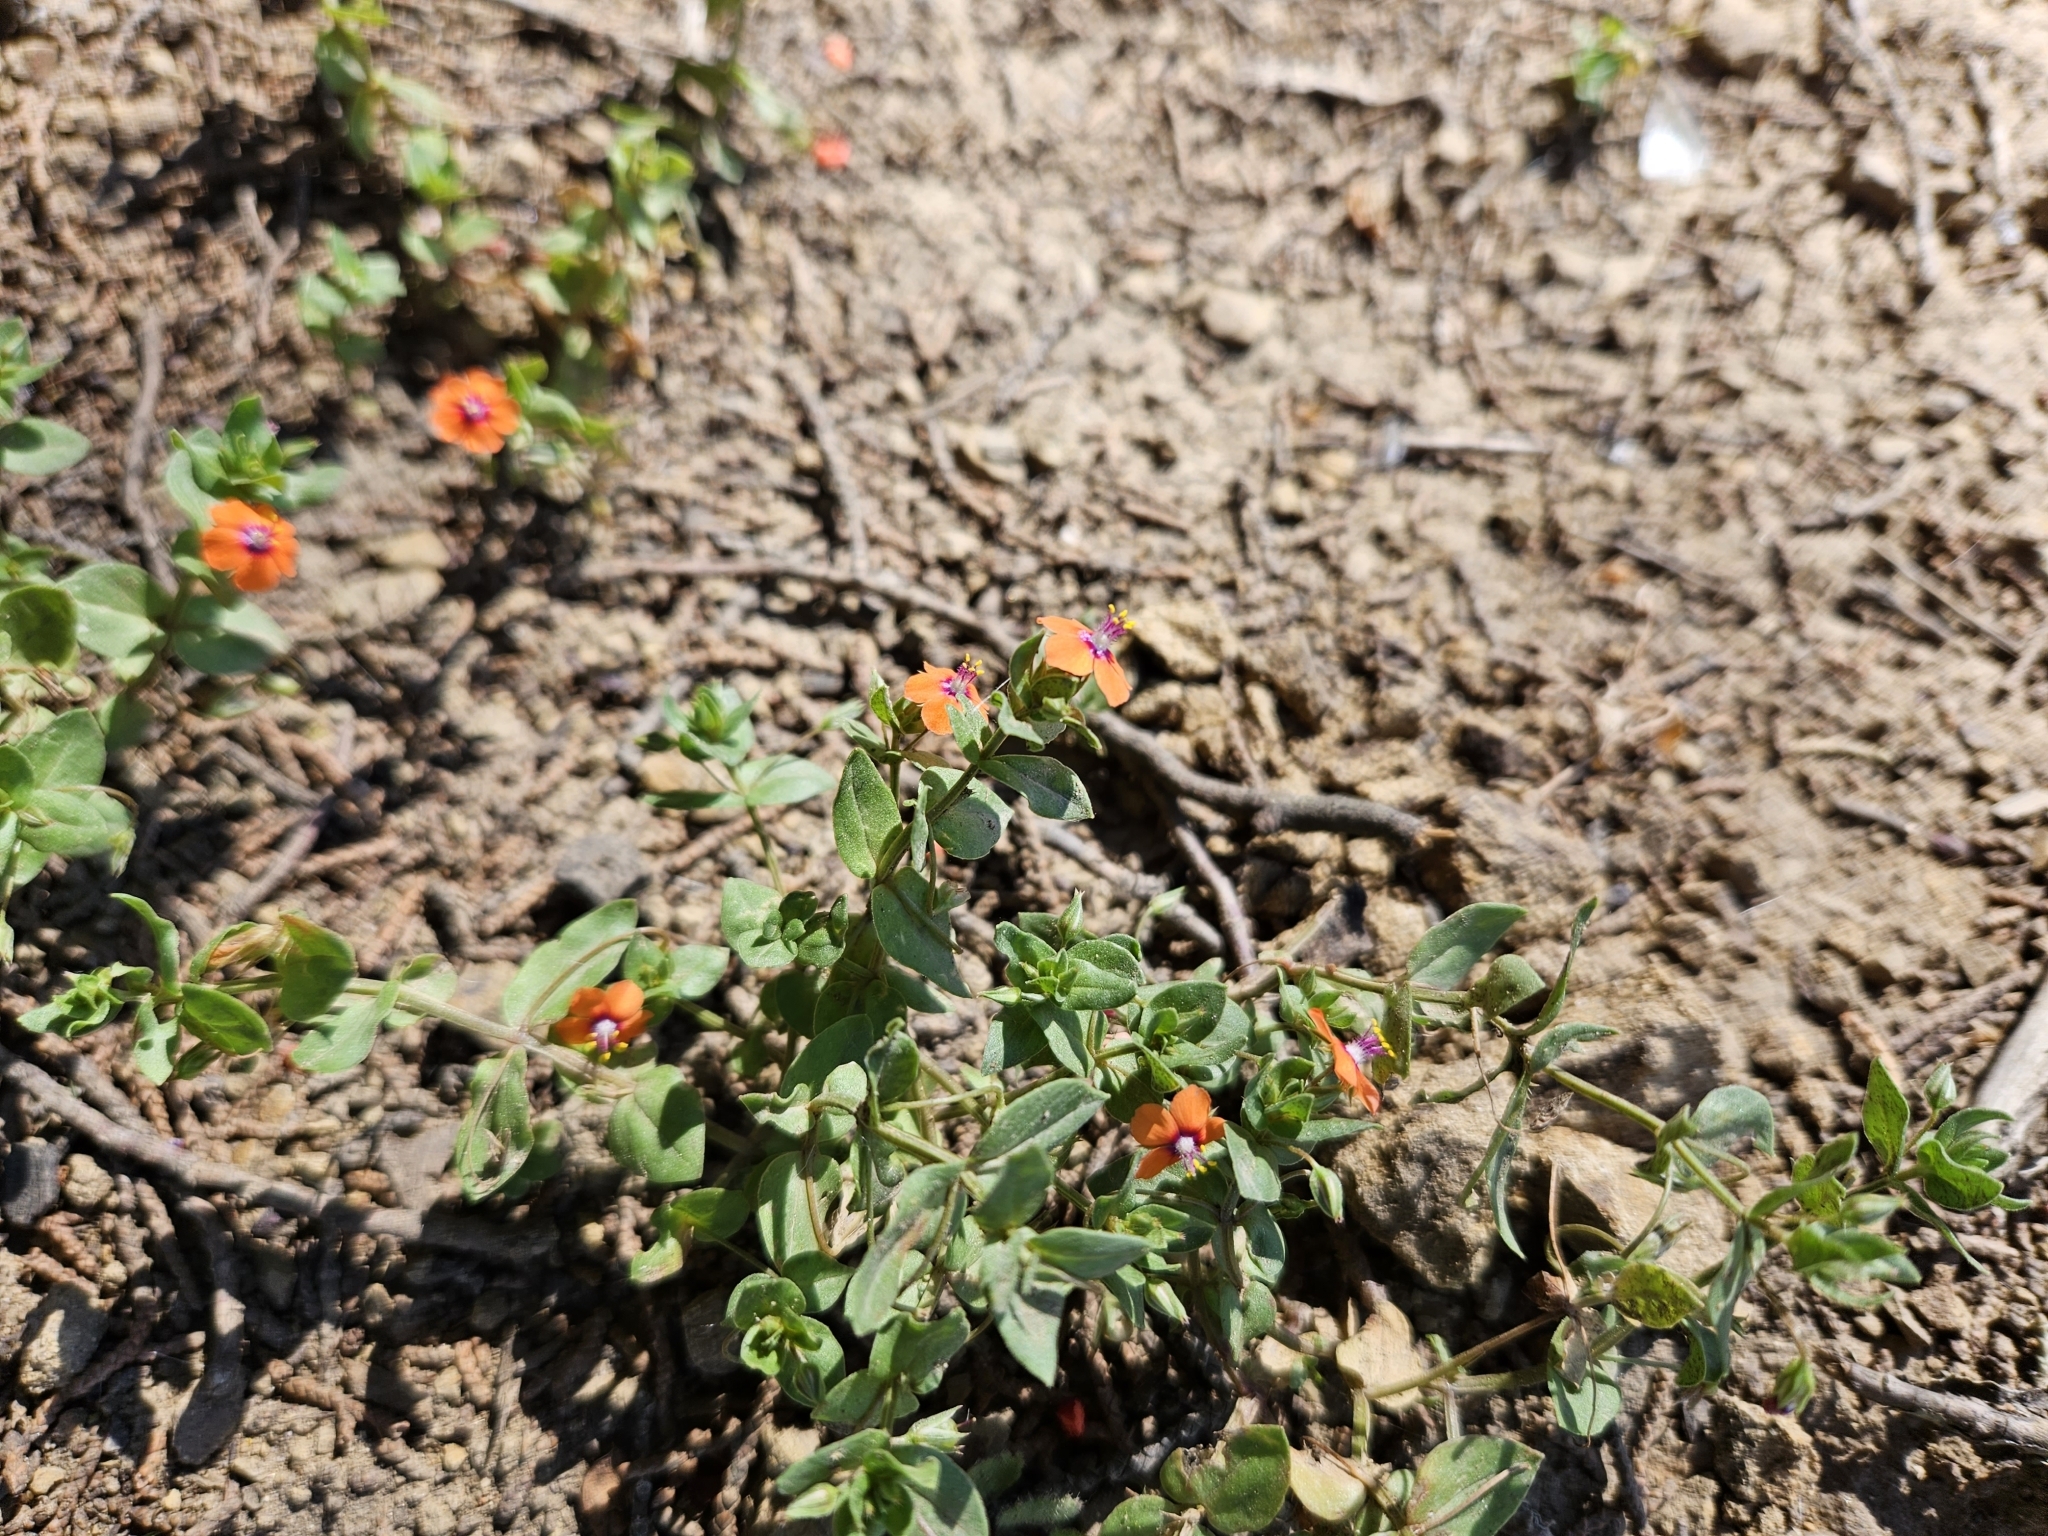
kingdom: Plantae
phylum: Tracheophyta
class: Magnoliopsida
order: Ericales
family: Primulaceae
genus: Lysimachia
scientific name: Lysimachia arvensis
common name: Scarlet pimpernel
